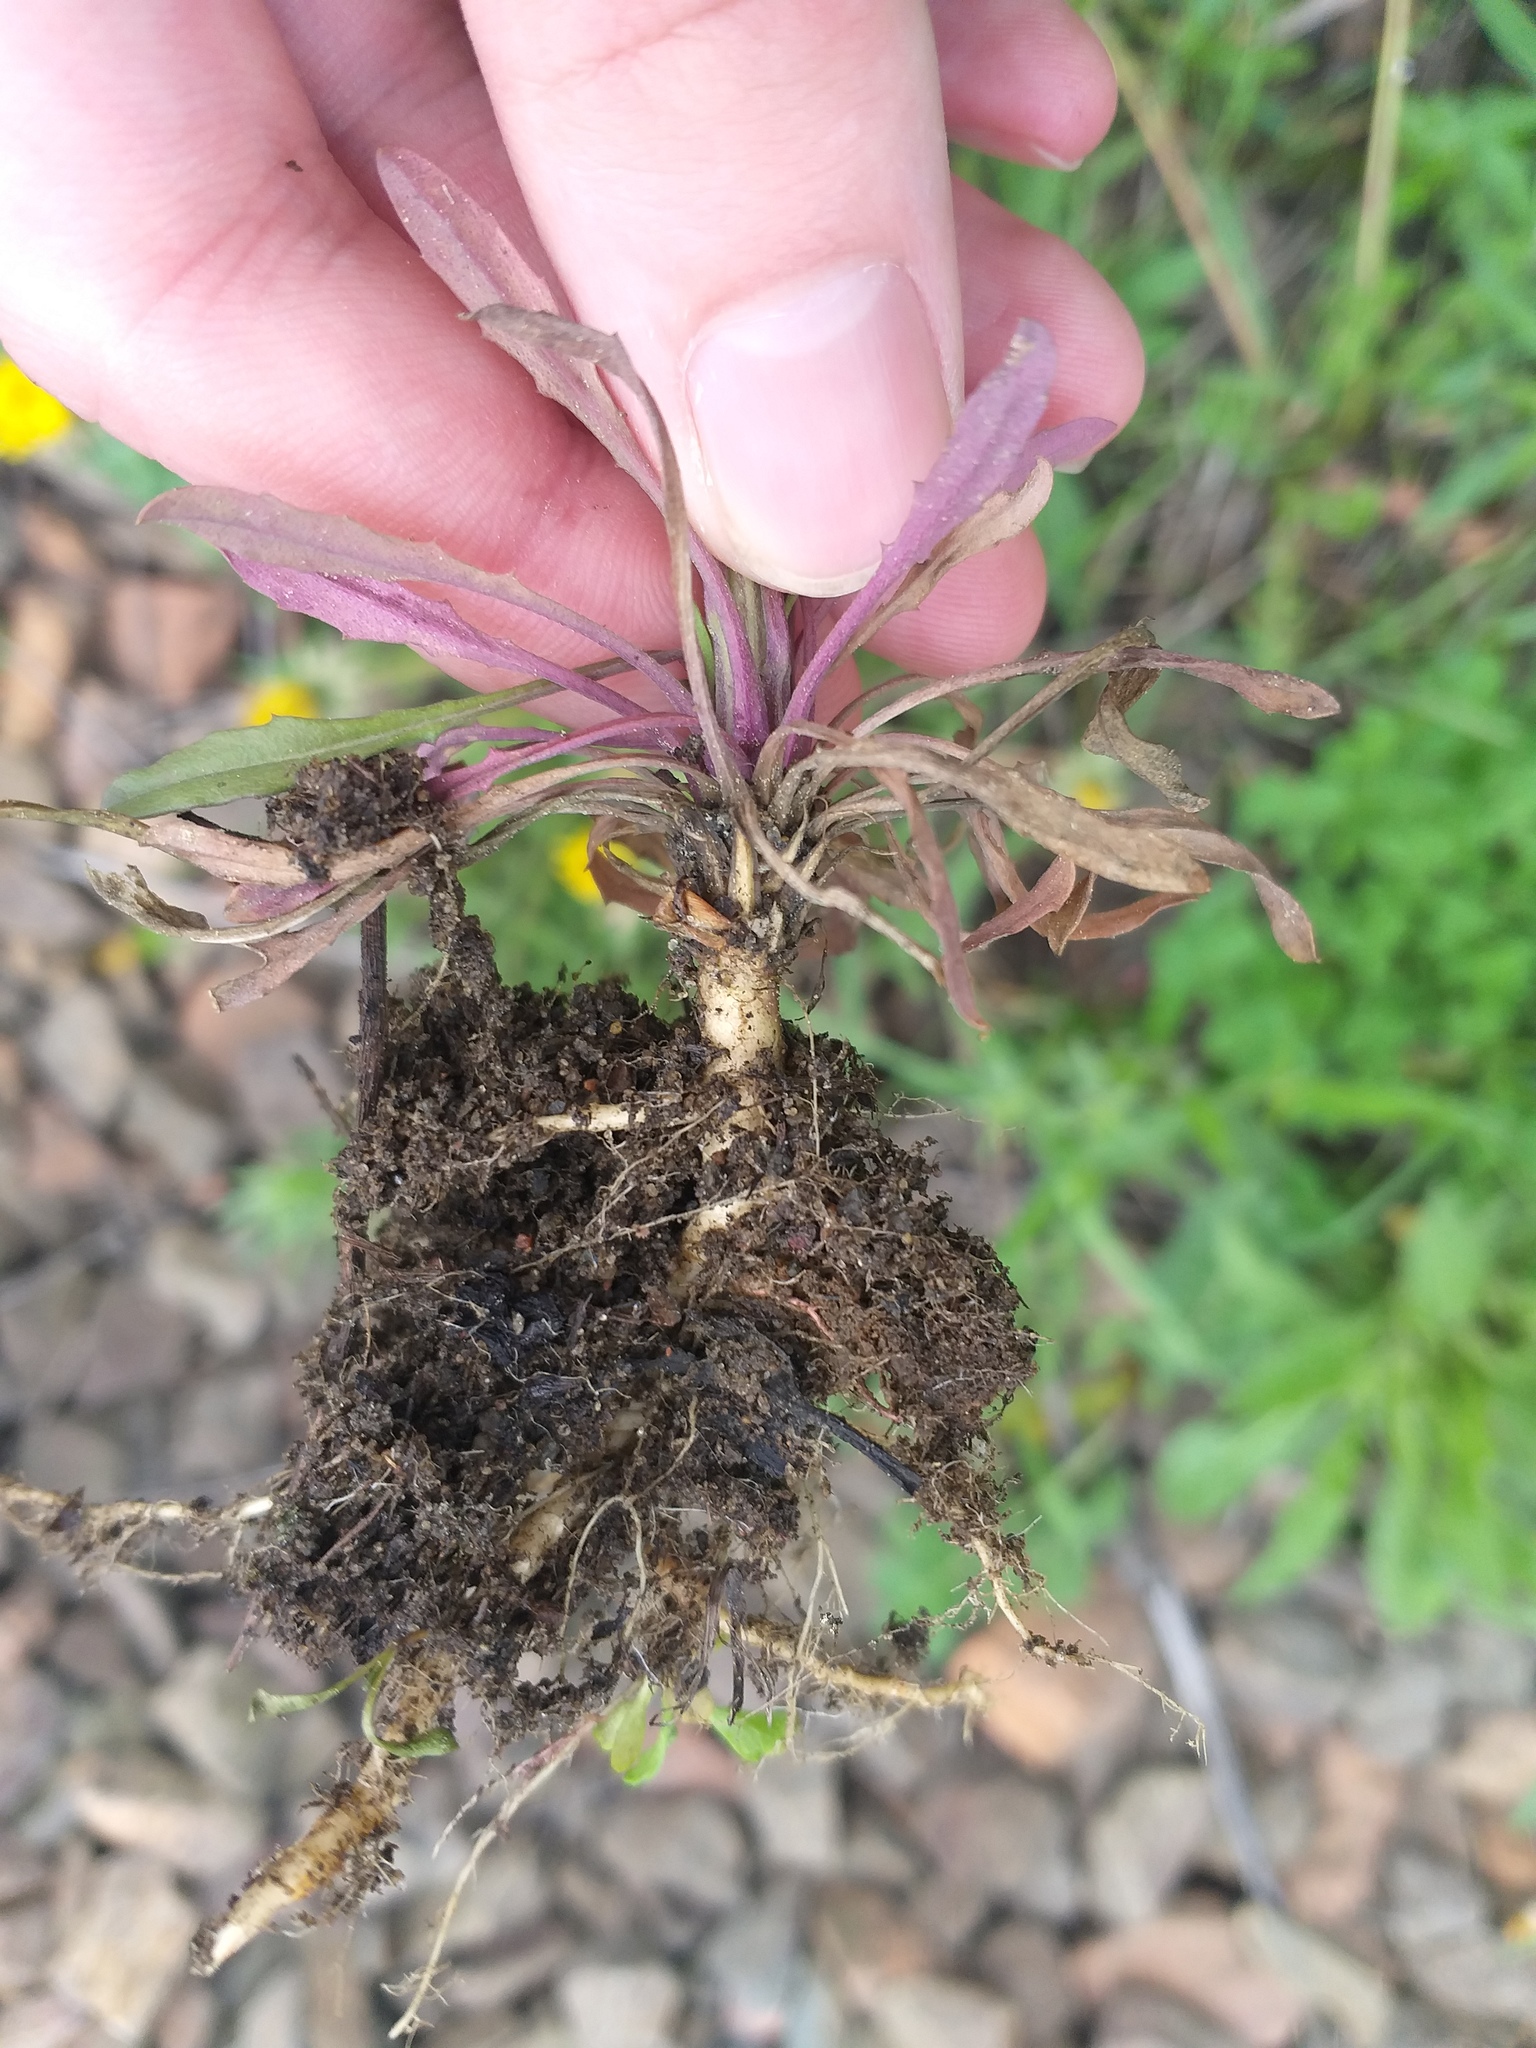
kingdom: Plantae
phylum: Tracheophyta
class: Magnoliopsida
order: Brassicales
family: Brassicaceae
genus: Erysimum
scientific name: Erysimum hieraciifolium
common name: European wallflower
